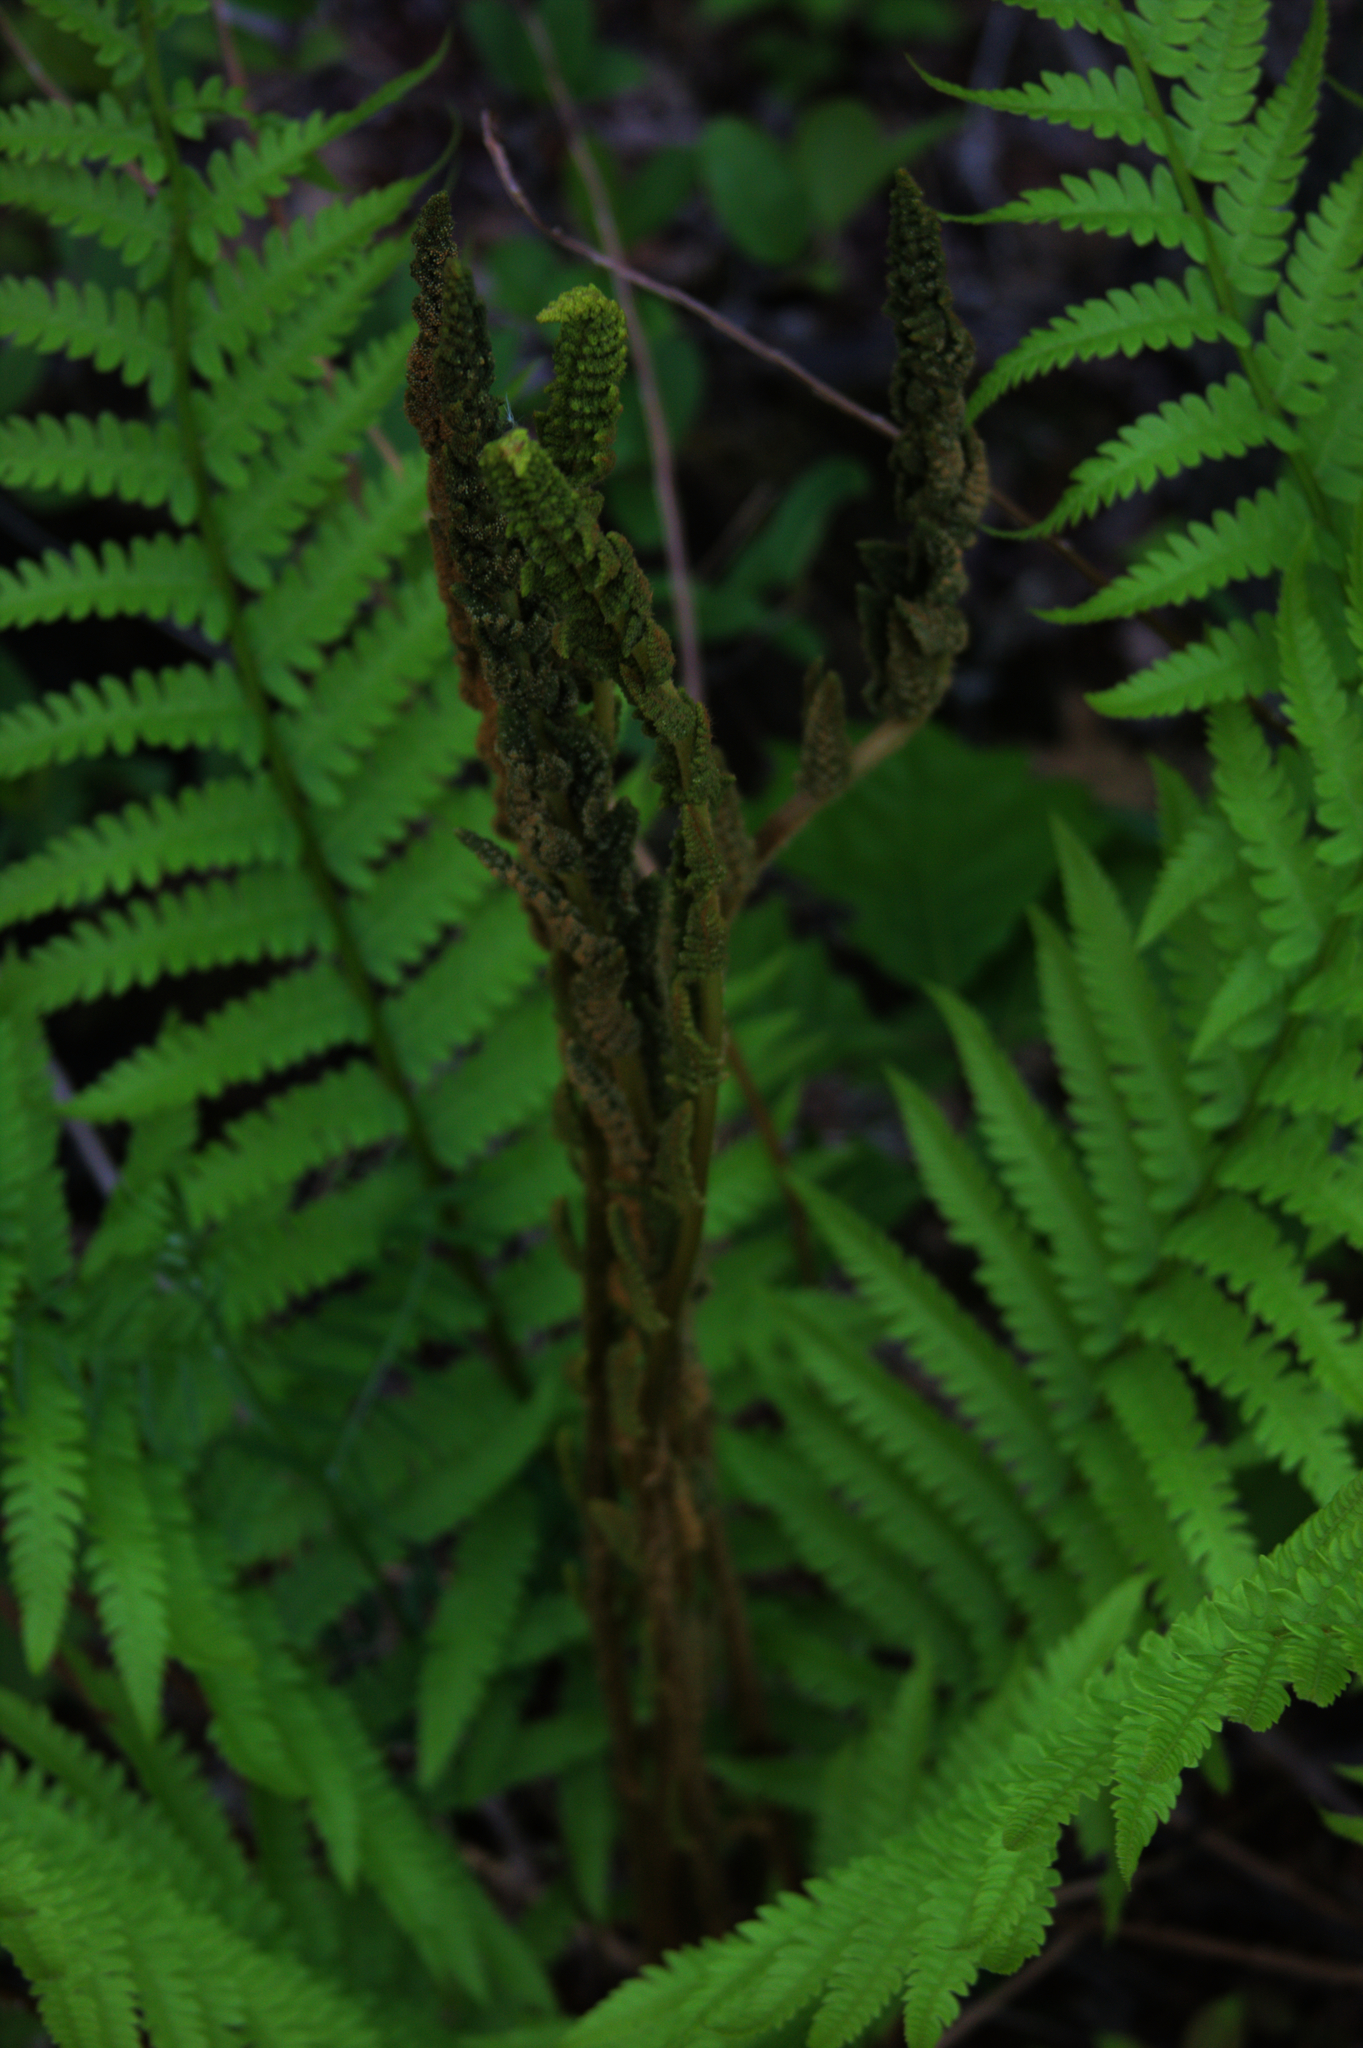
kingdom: Plantae
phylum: Tracheophyta
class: Polypodiopsida
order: Osmundales
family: Osmundaceae
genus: Osmundastrum
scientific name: Osmundastrum cinnamomeum
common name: Cinnamon fern
